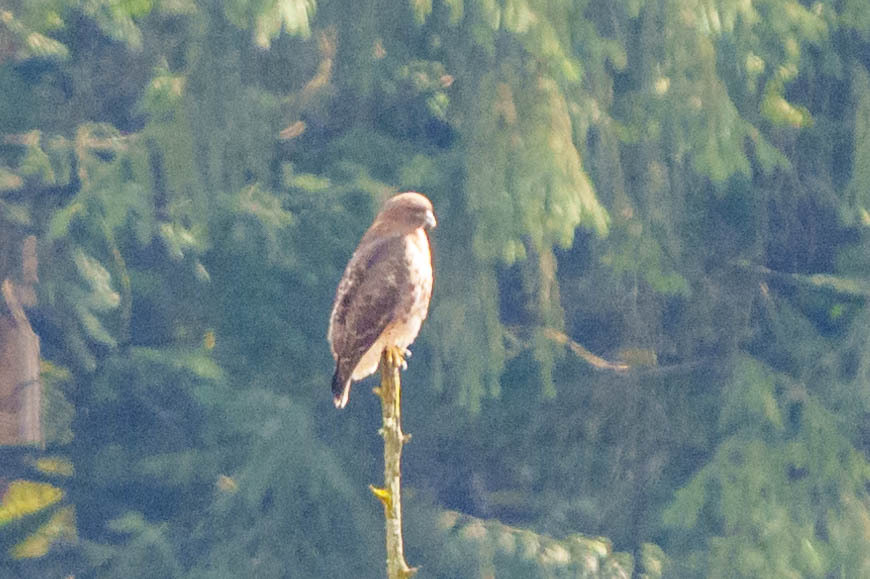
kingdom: Animalia
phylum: Chordata
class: Aves
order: Accipitriformes
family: Accipitridae
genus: Buteo
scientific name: Buteo jamaicensis
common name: Red-tailed hawk
